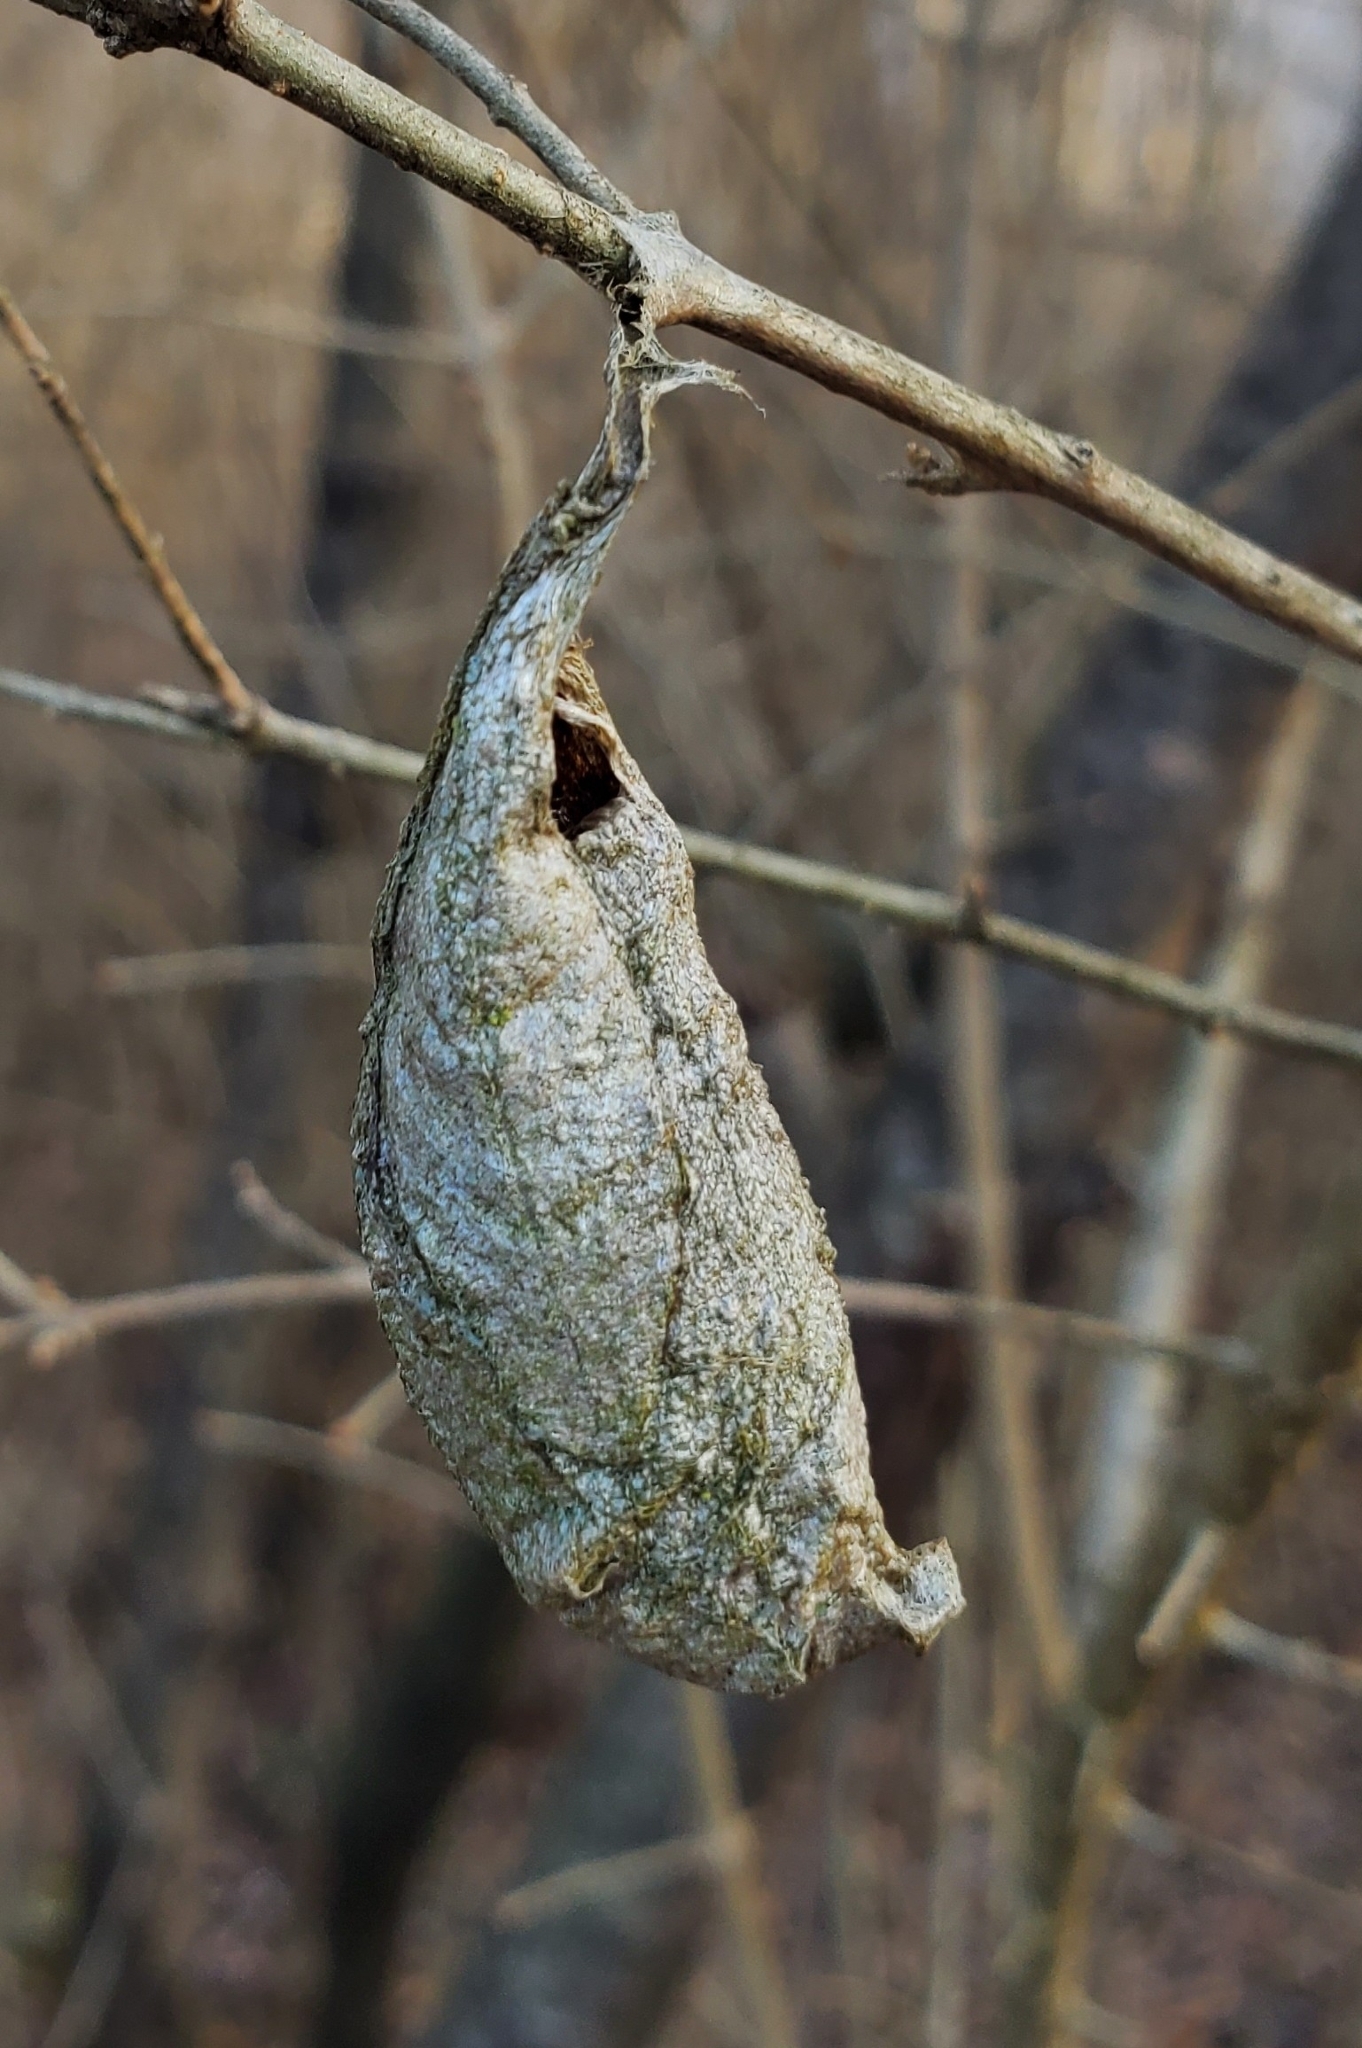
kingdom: Animalia
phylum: Arthropoda
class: Insecta
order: Lepidoptera
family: Saturniidae
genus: Callosamia
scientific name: Callosamia promethea
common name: Promethea silkmoth
